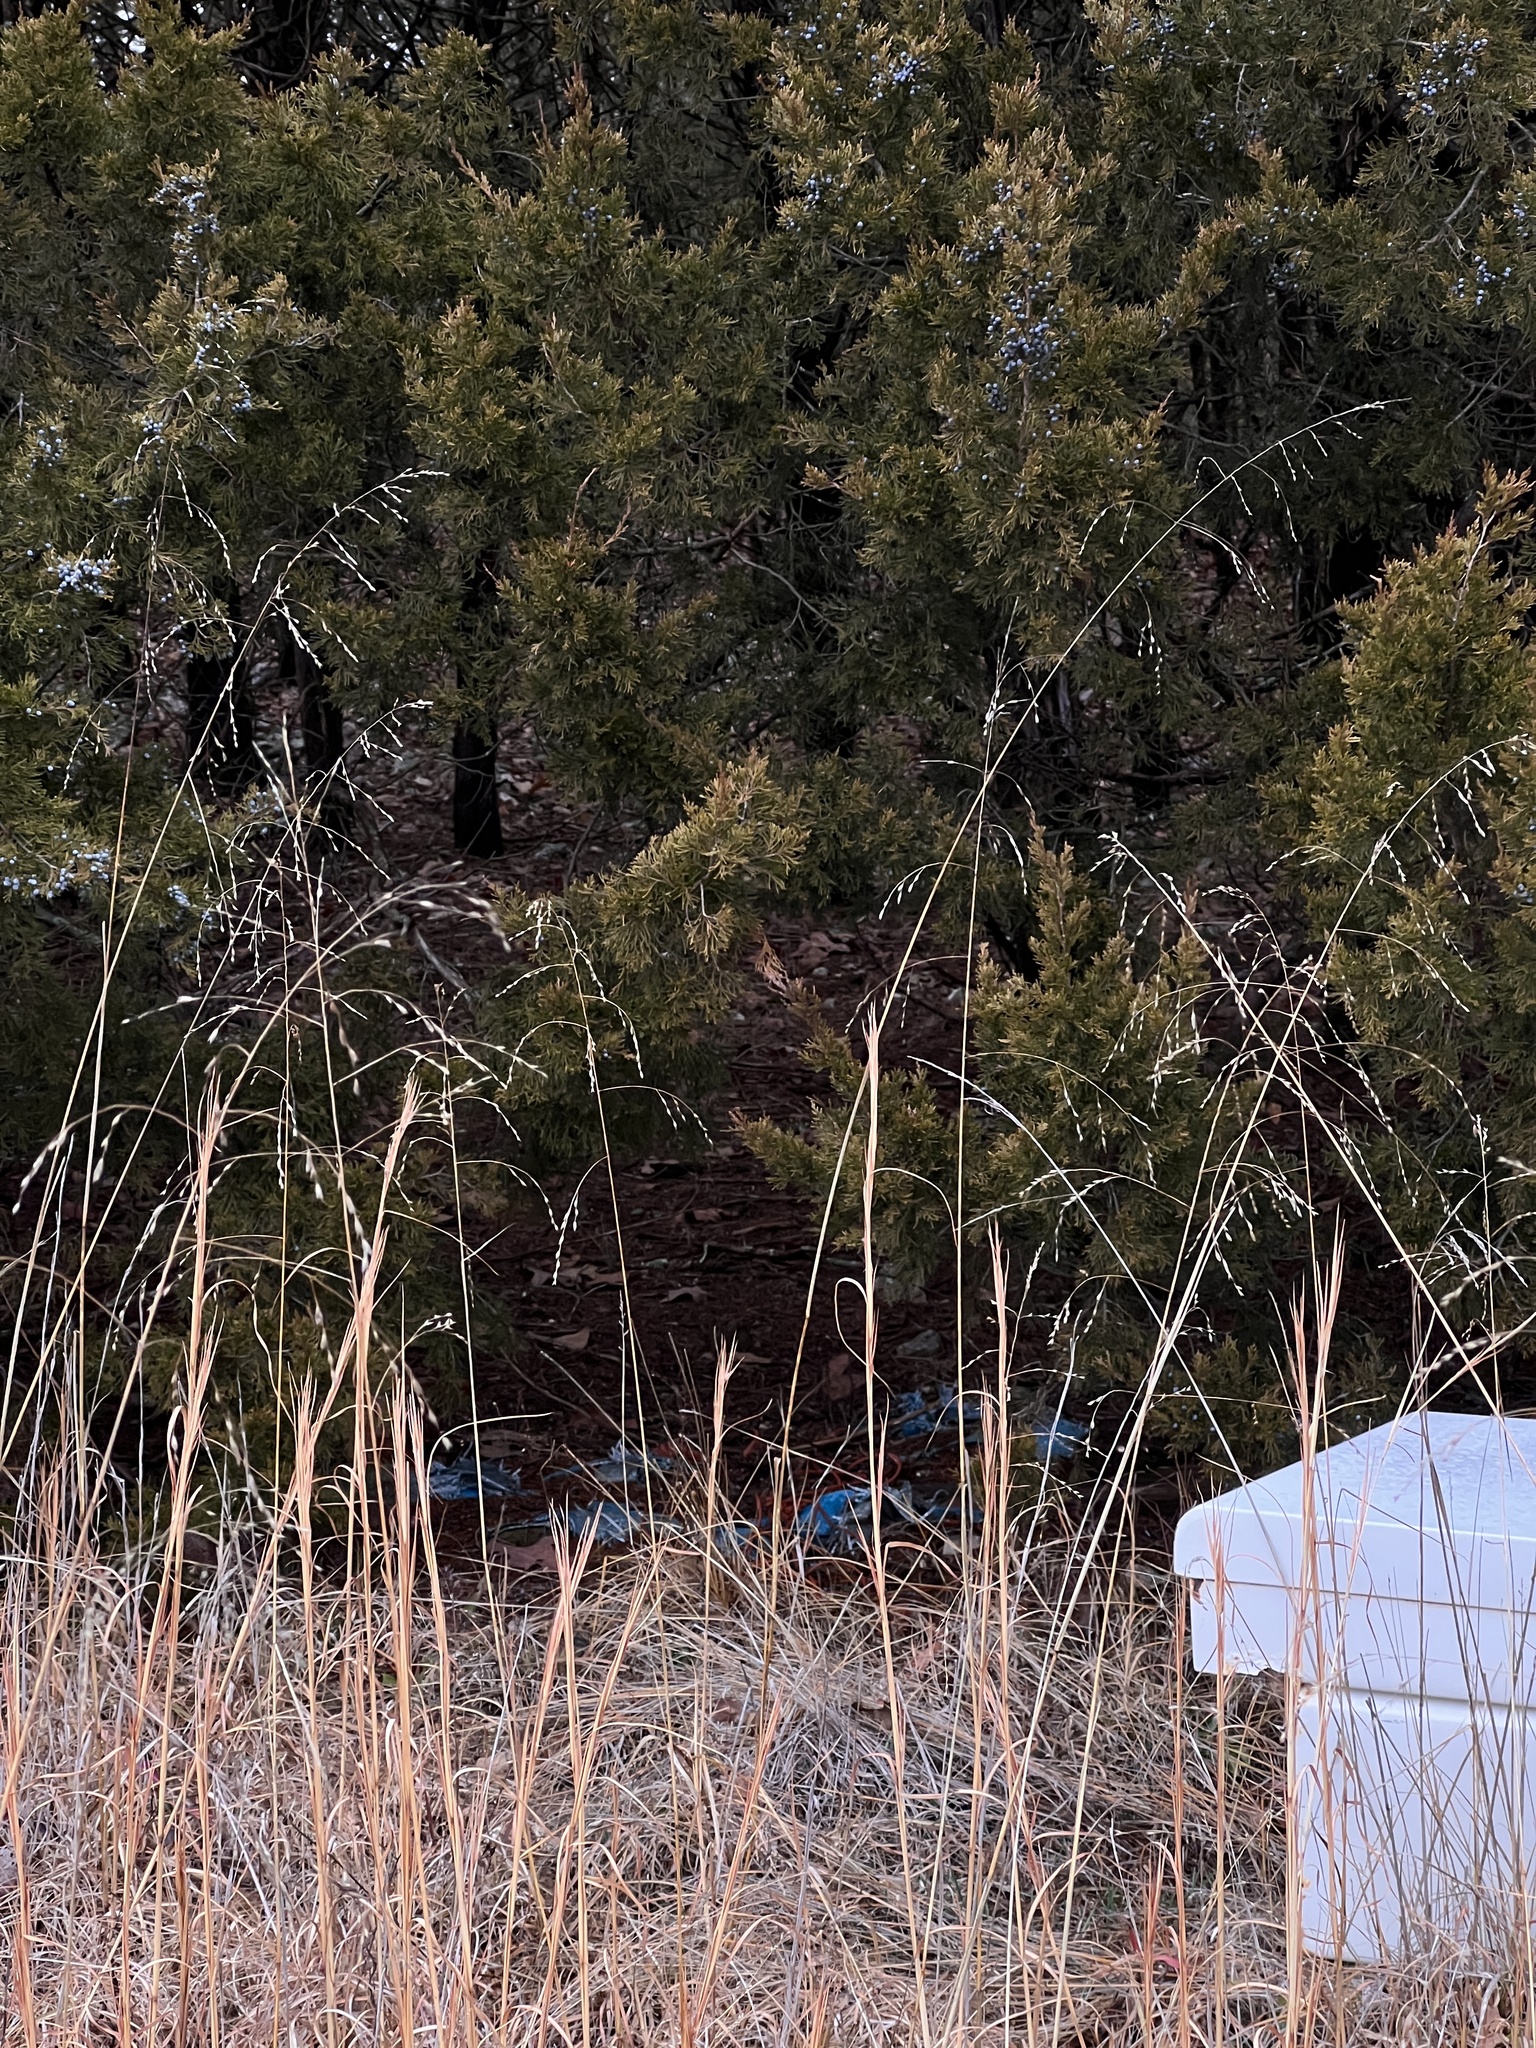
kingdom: Plantae
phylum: Tracheophyta
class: Liliopsida
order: Poales
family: Poaceae
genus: Tridens
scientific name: Tridens flavus
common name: Purpletop
